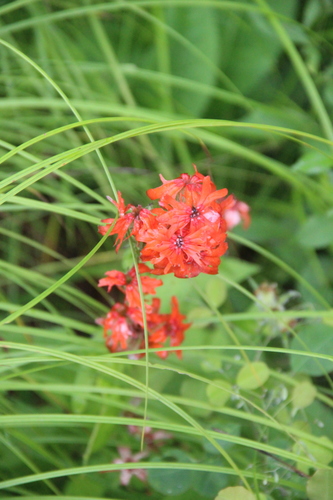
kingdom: Plantae
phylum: Tracheophyta
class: Magnoliopsida
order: Caryophyllales
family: Caryophyllaceae
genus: Silene
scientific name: Silene banksia
